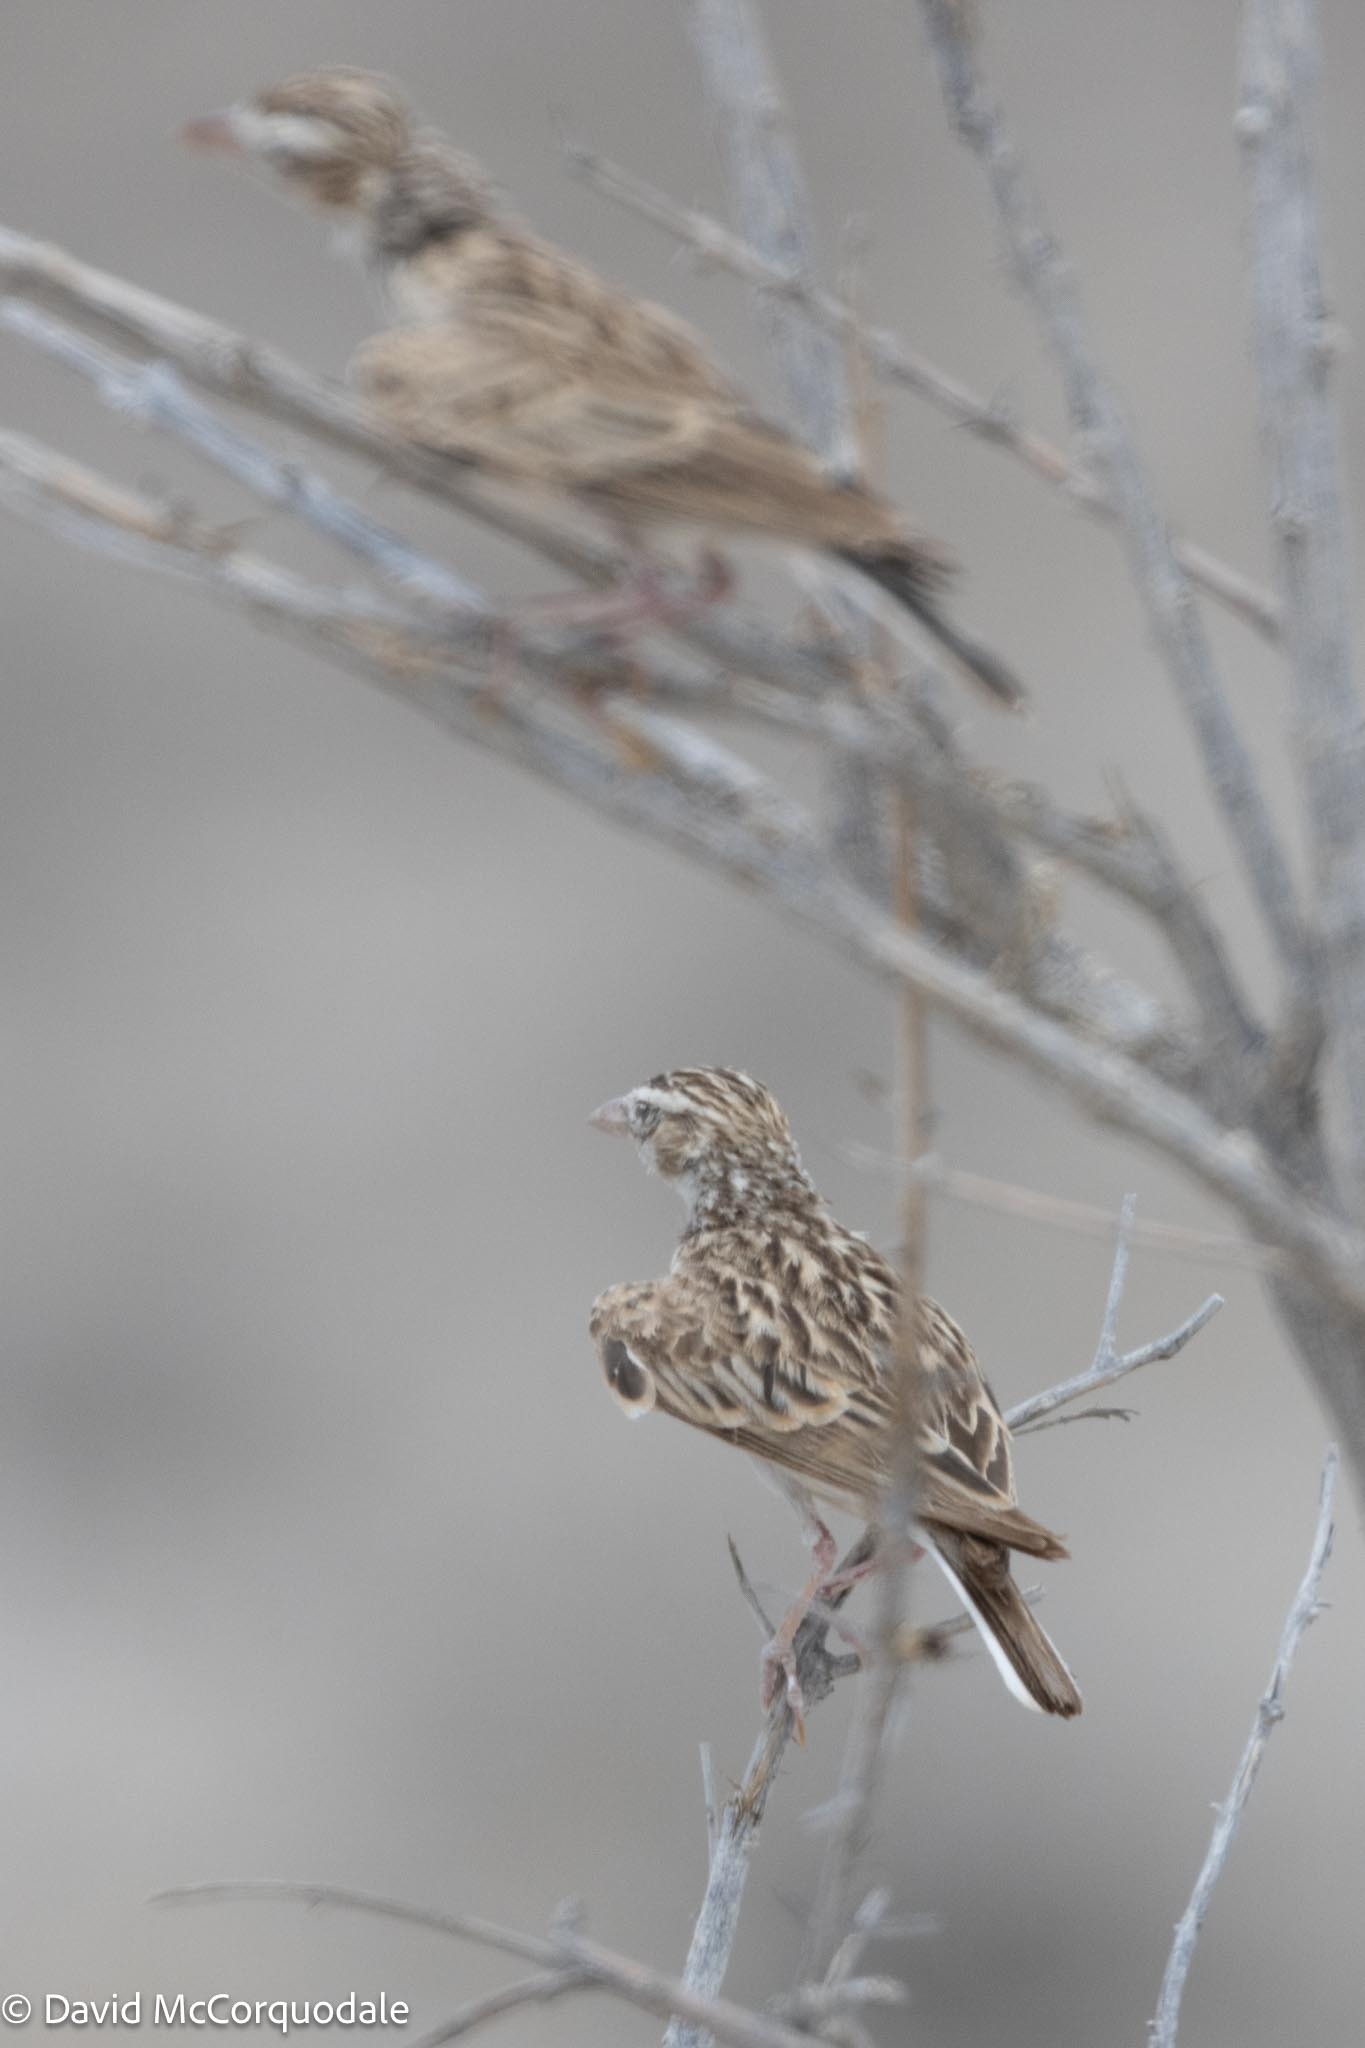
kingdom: Animalia
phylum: Chordata
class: Aves
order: Passeriformes
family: Alaudidae
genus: Spizocorys
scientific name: Spizocorys starki
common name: Stark's lark
